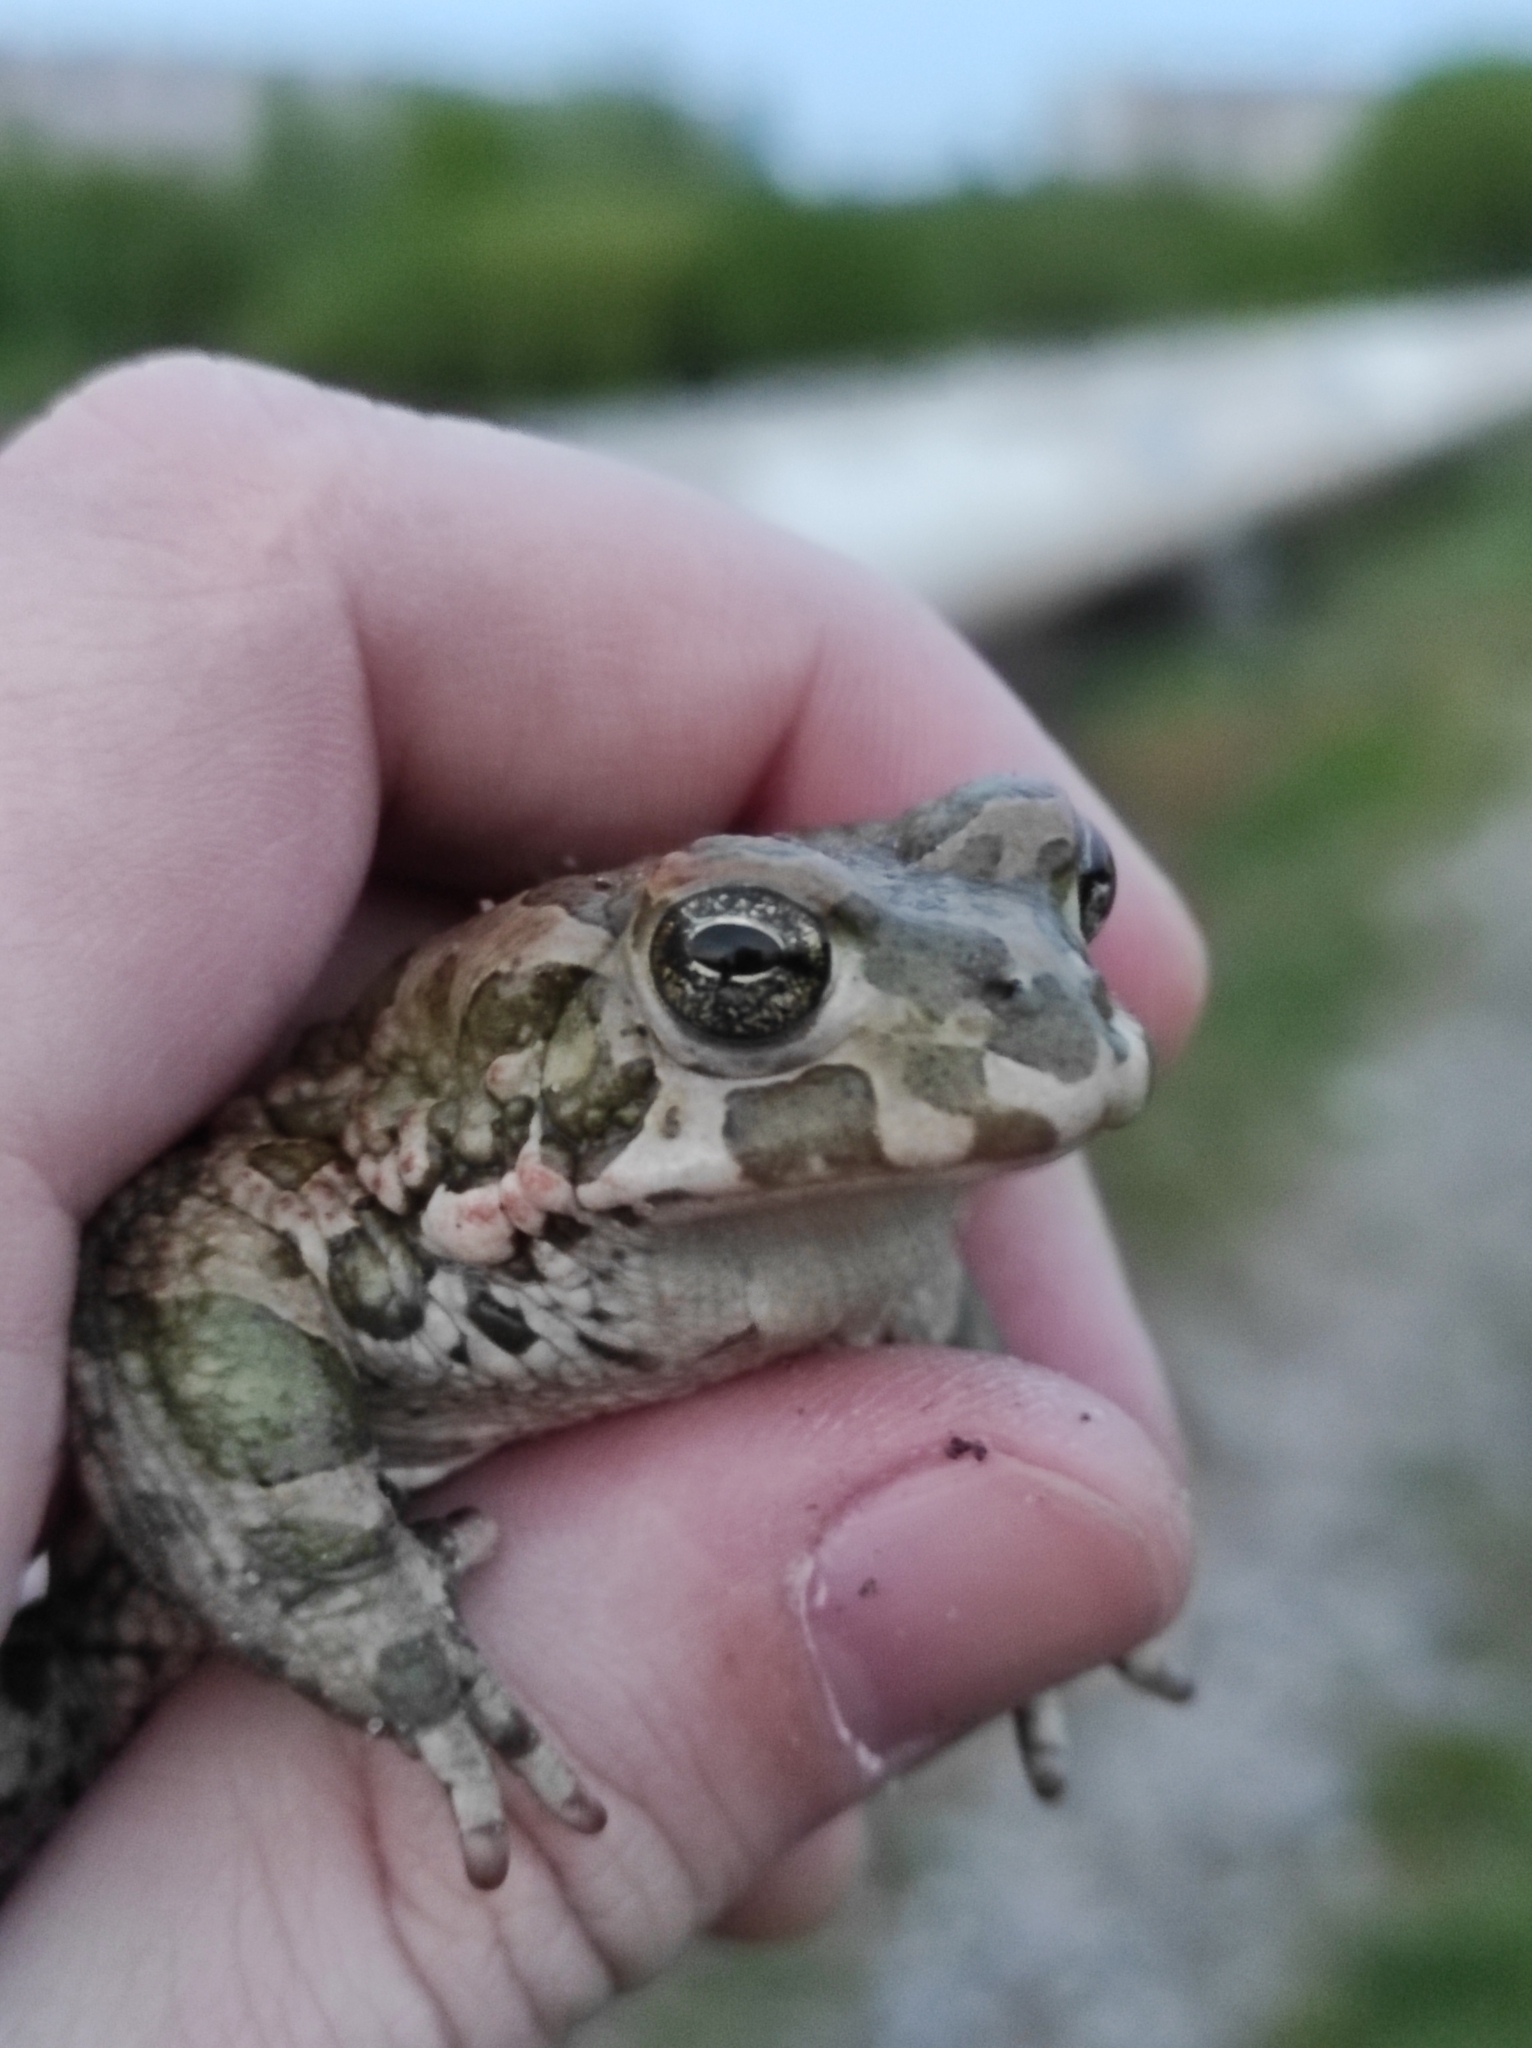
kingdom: Animalia
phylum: Chordata
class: Amphibia
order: Anura
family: Bufonidae
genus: Bufotes
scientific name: Bufotes viridis
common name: European green toad
